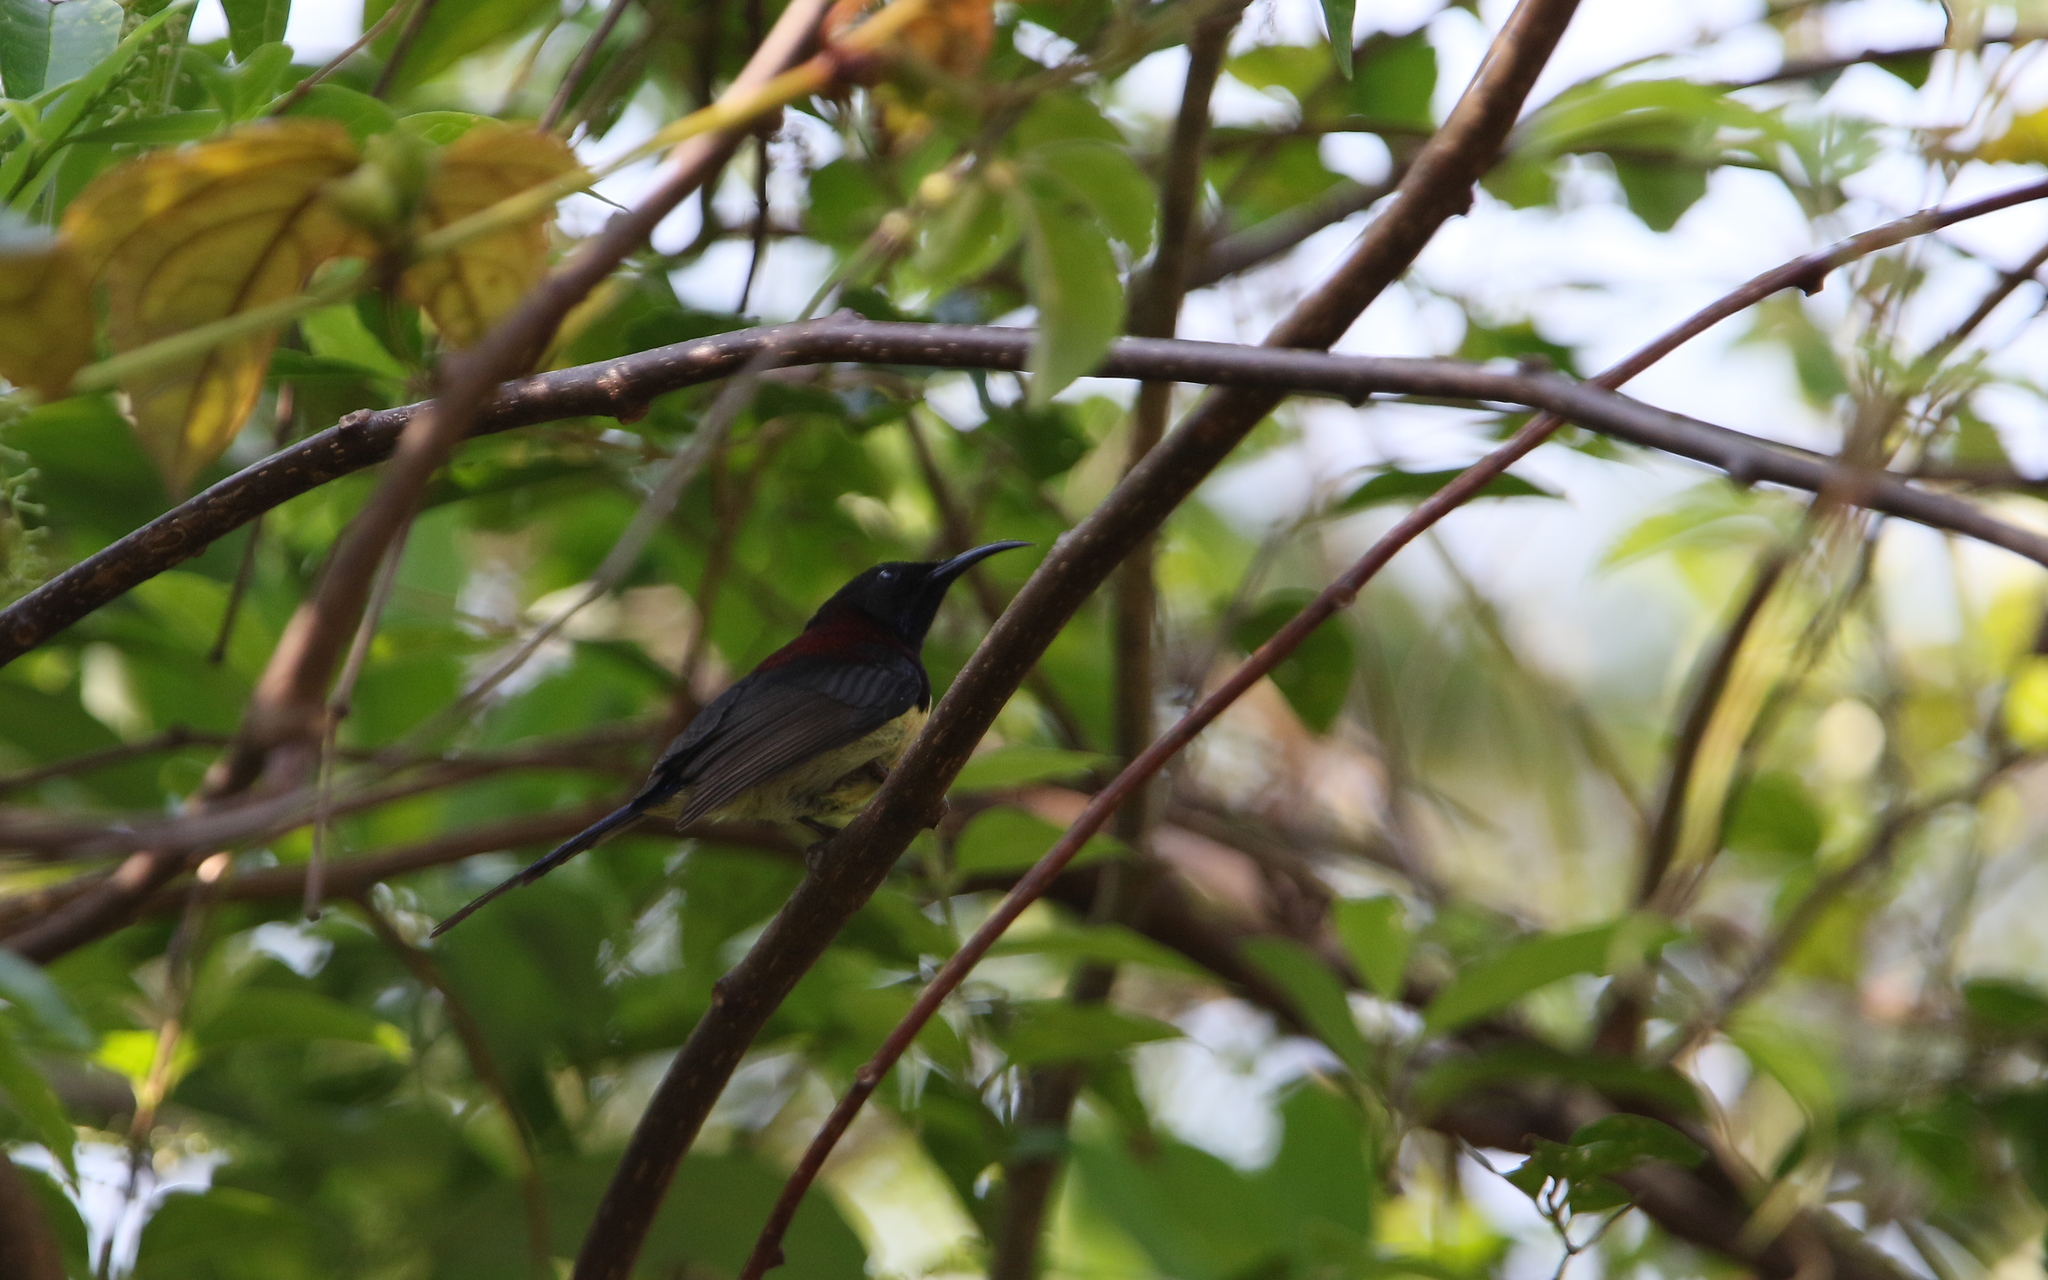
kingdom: Animalia
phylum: Chordata
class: Aves
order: Passeriformes
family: Nectariniidae
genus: Aethopyga
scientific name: Aethopyga saturata
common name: Black-throated sunbird
